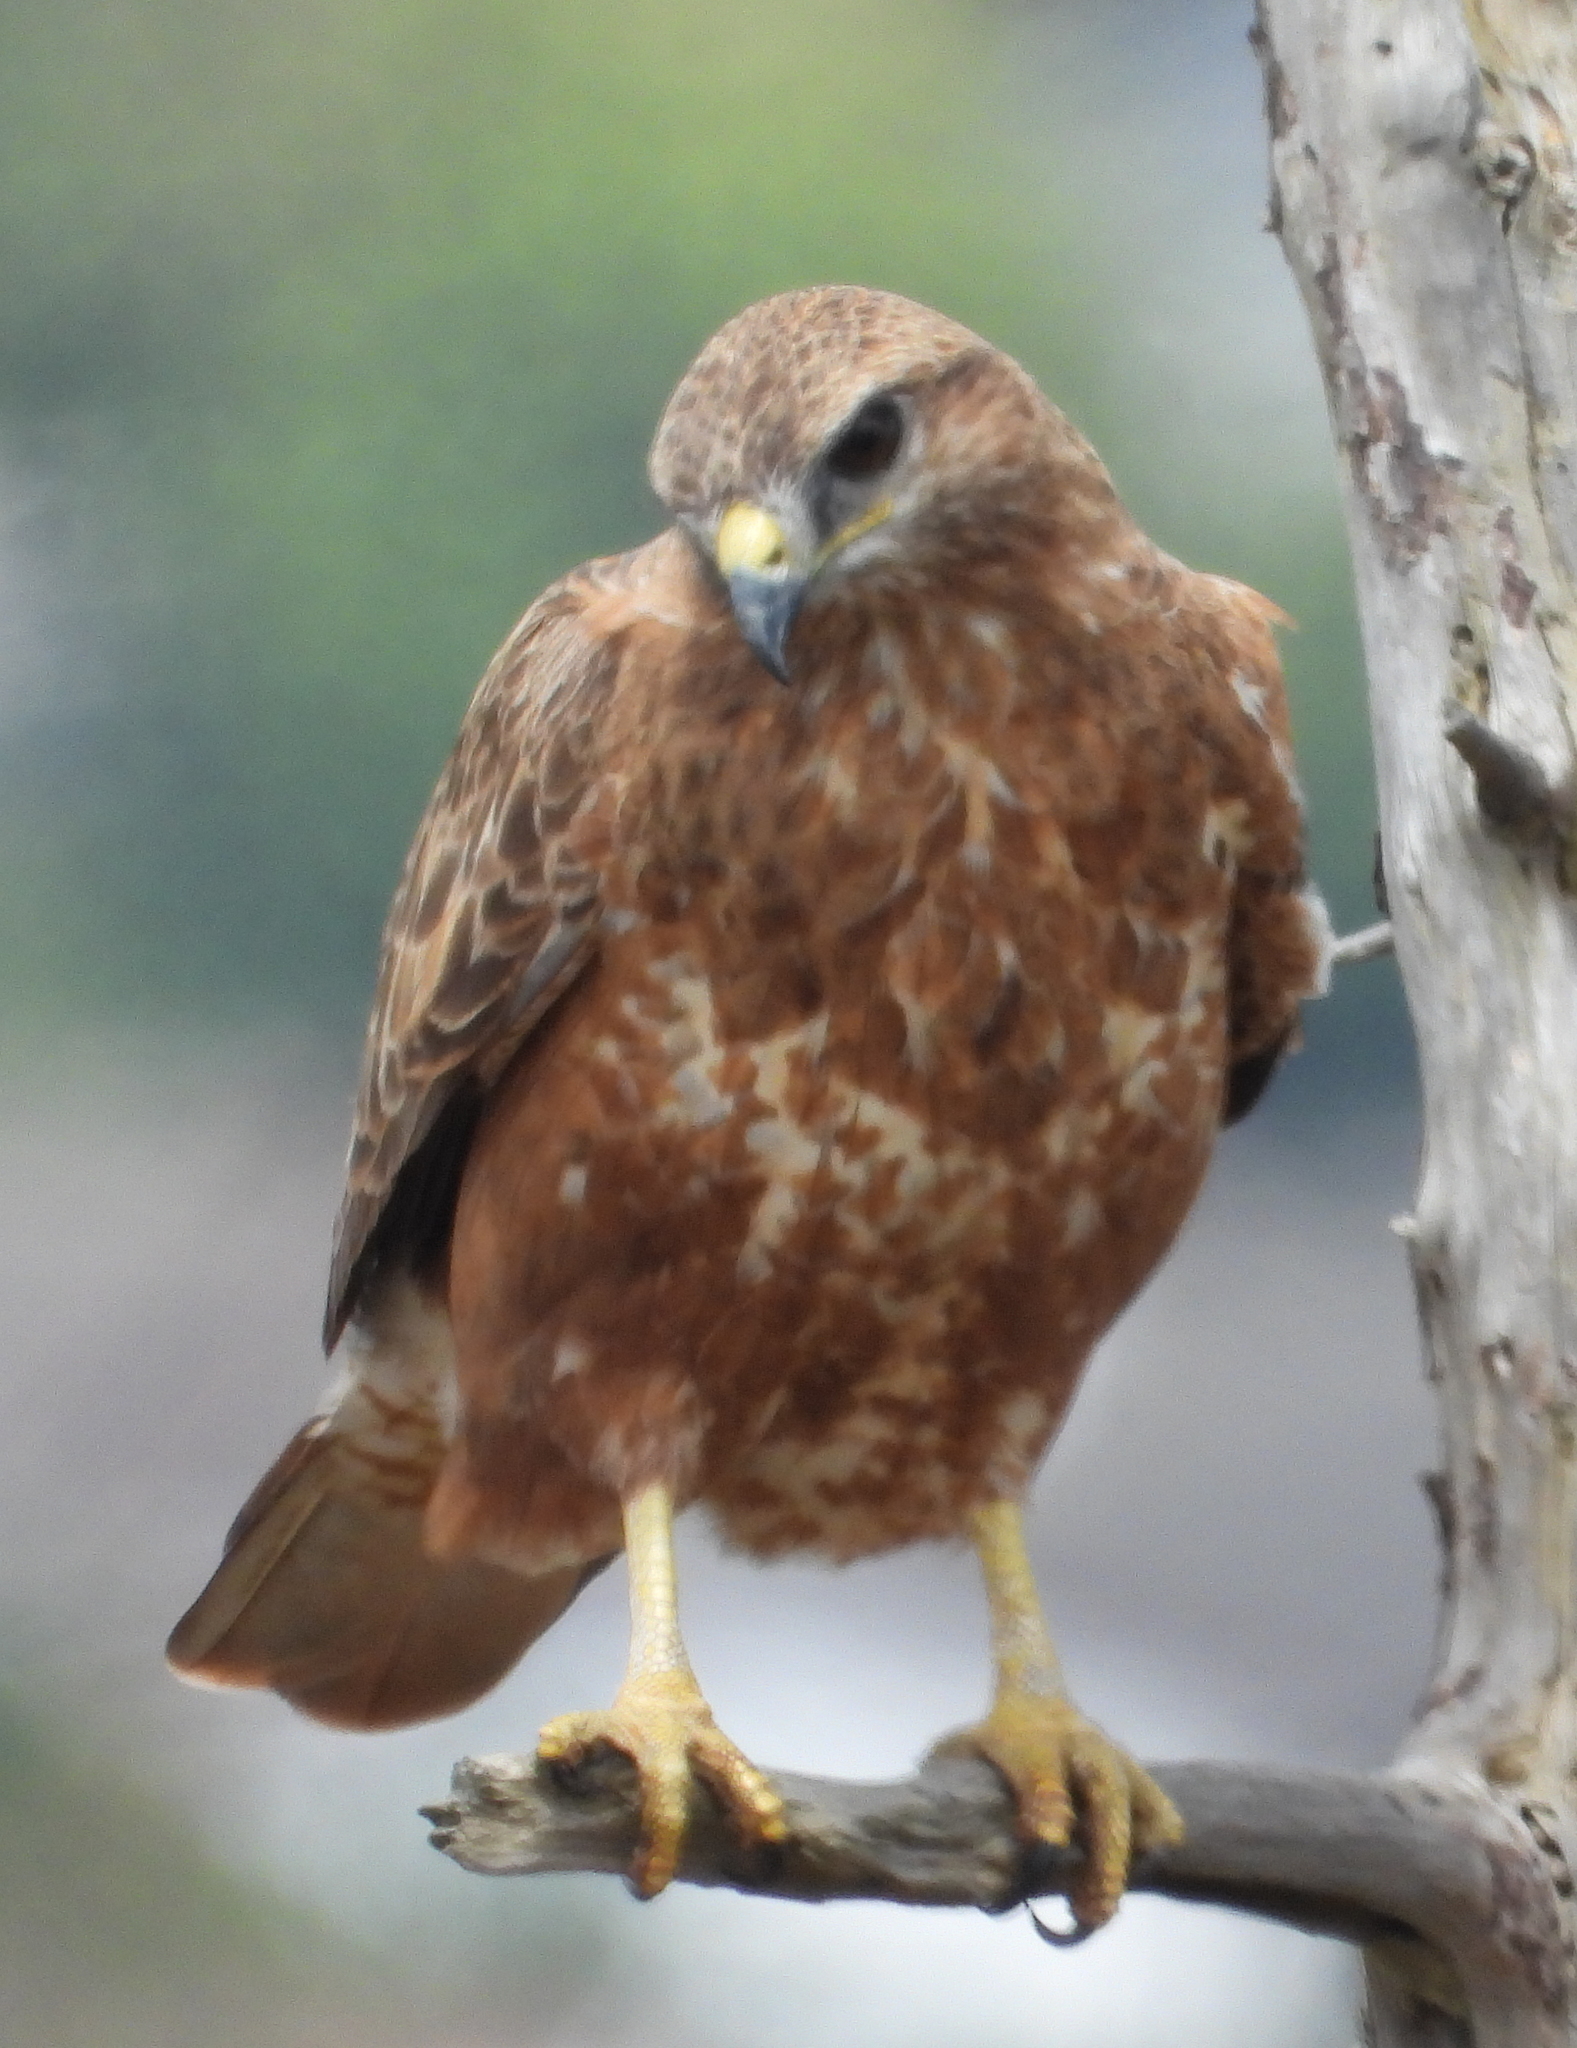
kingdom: Animalia
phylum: Chordata
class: Aves
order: Accipitriformes
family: Accipitridae
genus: Buteo
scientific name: Buteo buteo
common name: Common buzzard
